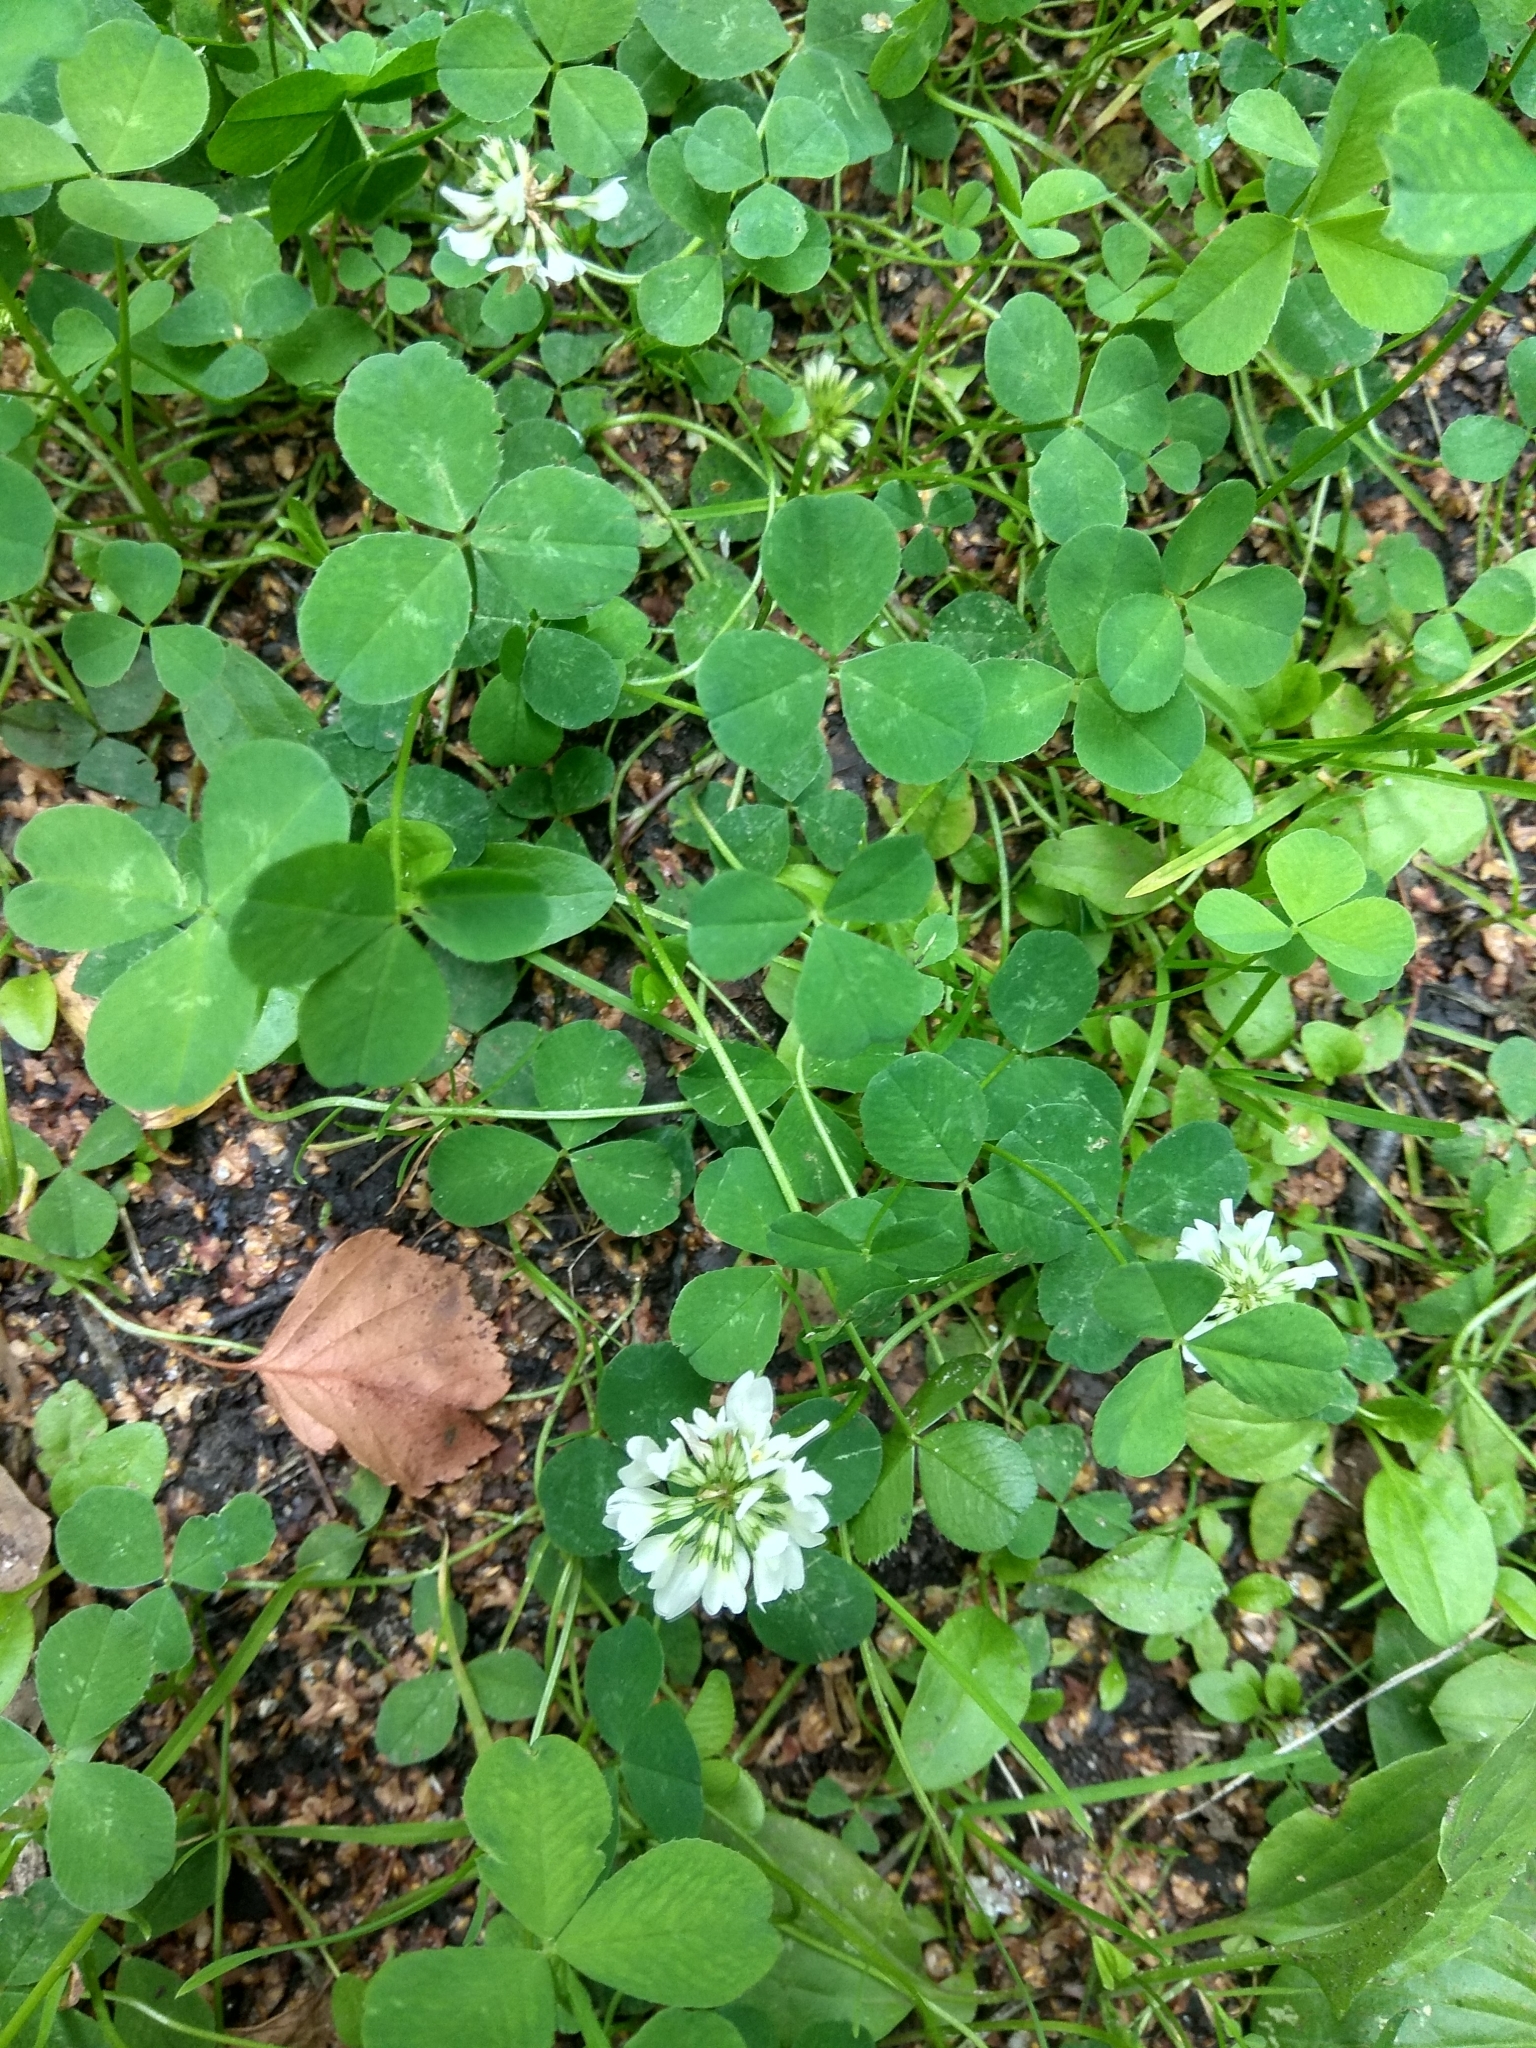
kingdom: Plantae
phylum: Tracheophyta
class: Magnoliopsida
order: Fabales
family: Fabaceae
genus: Trifolium
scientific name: Trifolium repens
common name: White clover
